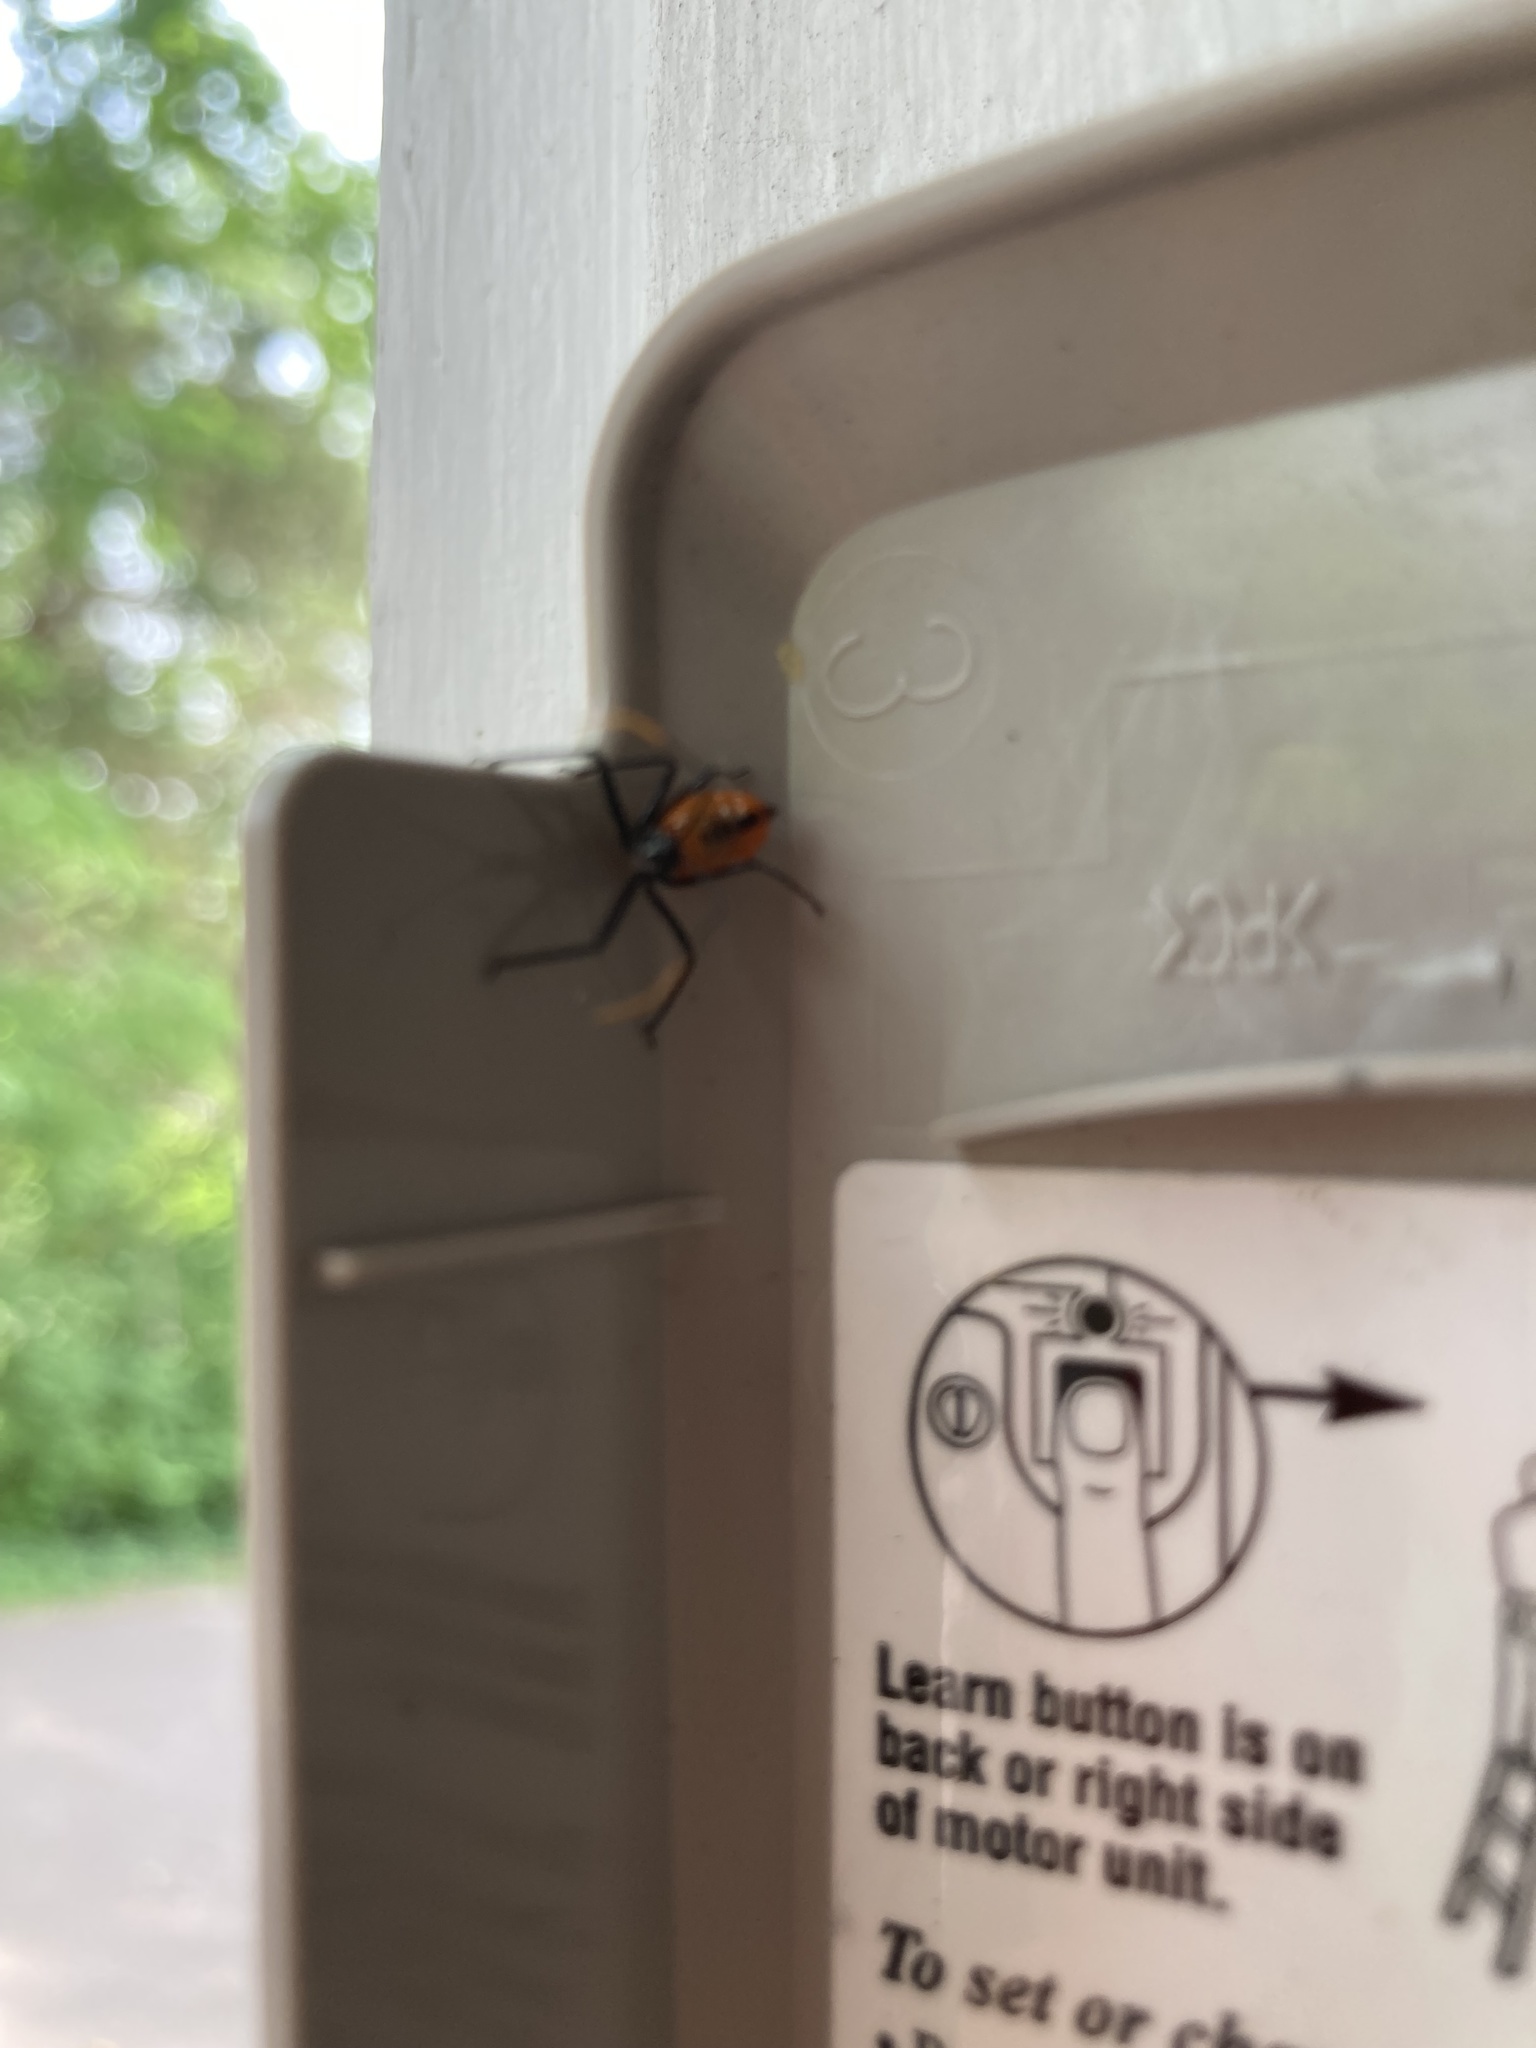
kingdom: Animalia
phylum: Arthropoda
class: Insecta
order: Hemiptera
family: Reduviidae
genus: Arilus
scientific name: Arilus cristatus
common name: North american wheel bug
